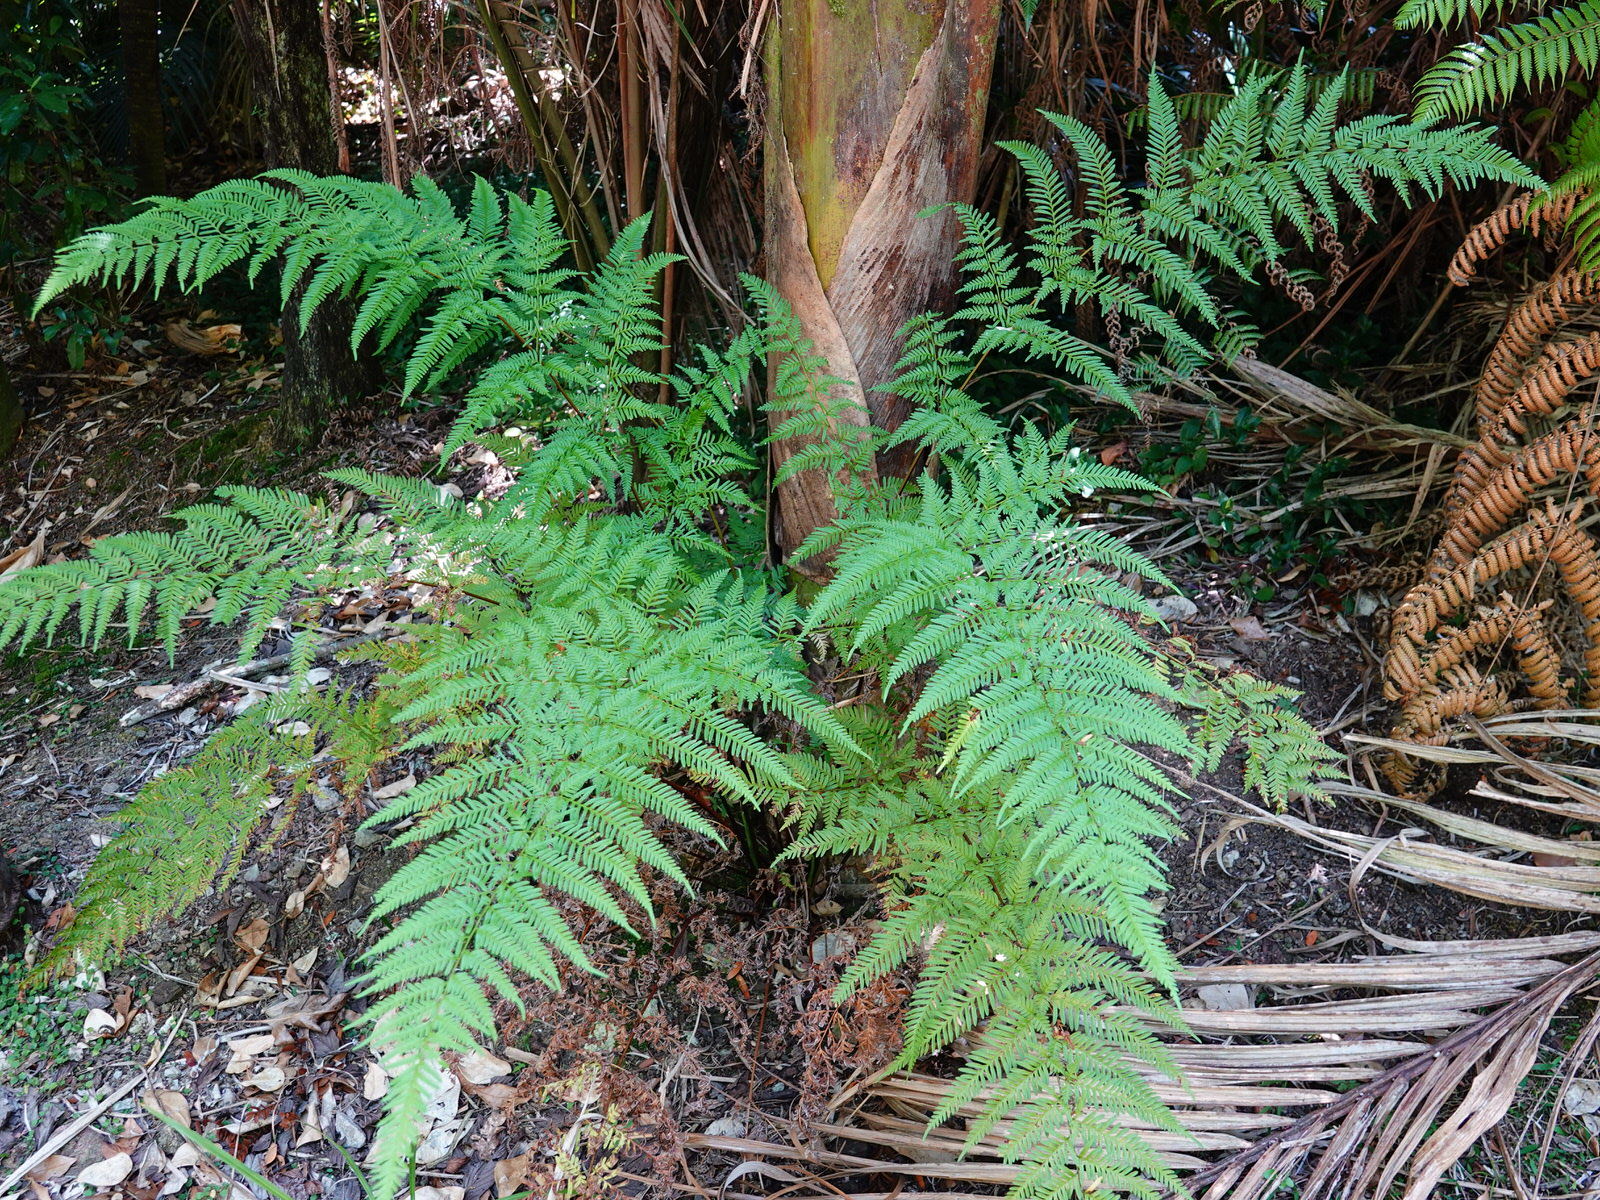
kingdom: Plantae
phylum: Tracheophyta
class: Polypodiopsida
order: Polypodiales
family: Pteridaceae
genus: Pteris
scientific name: Pteris tremula
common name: Australian brake
